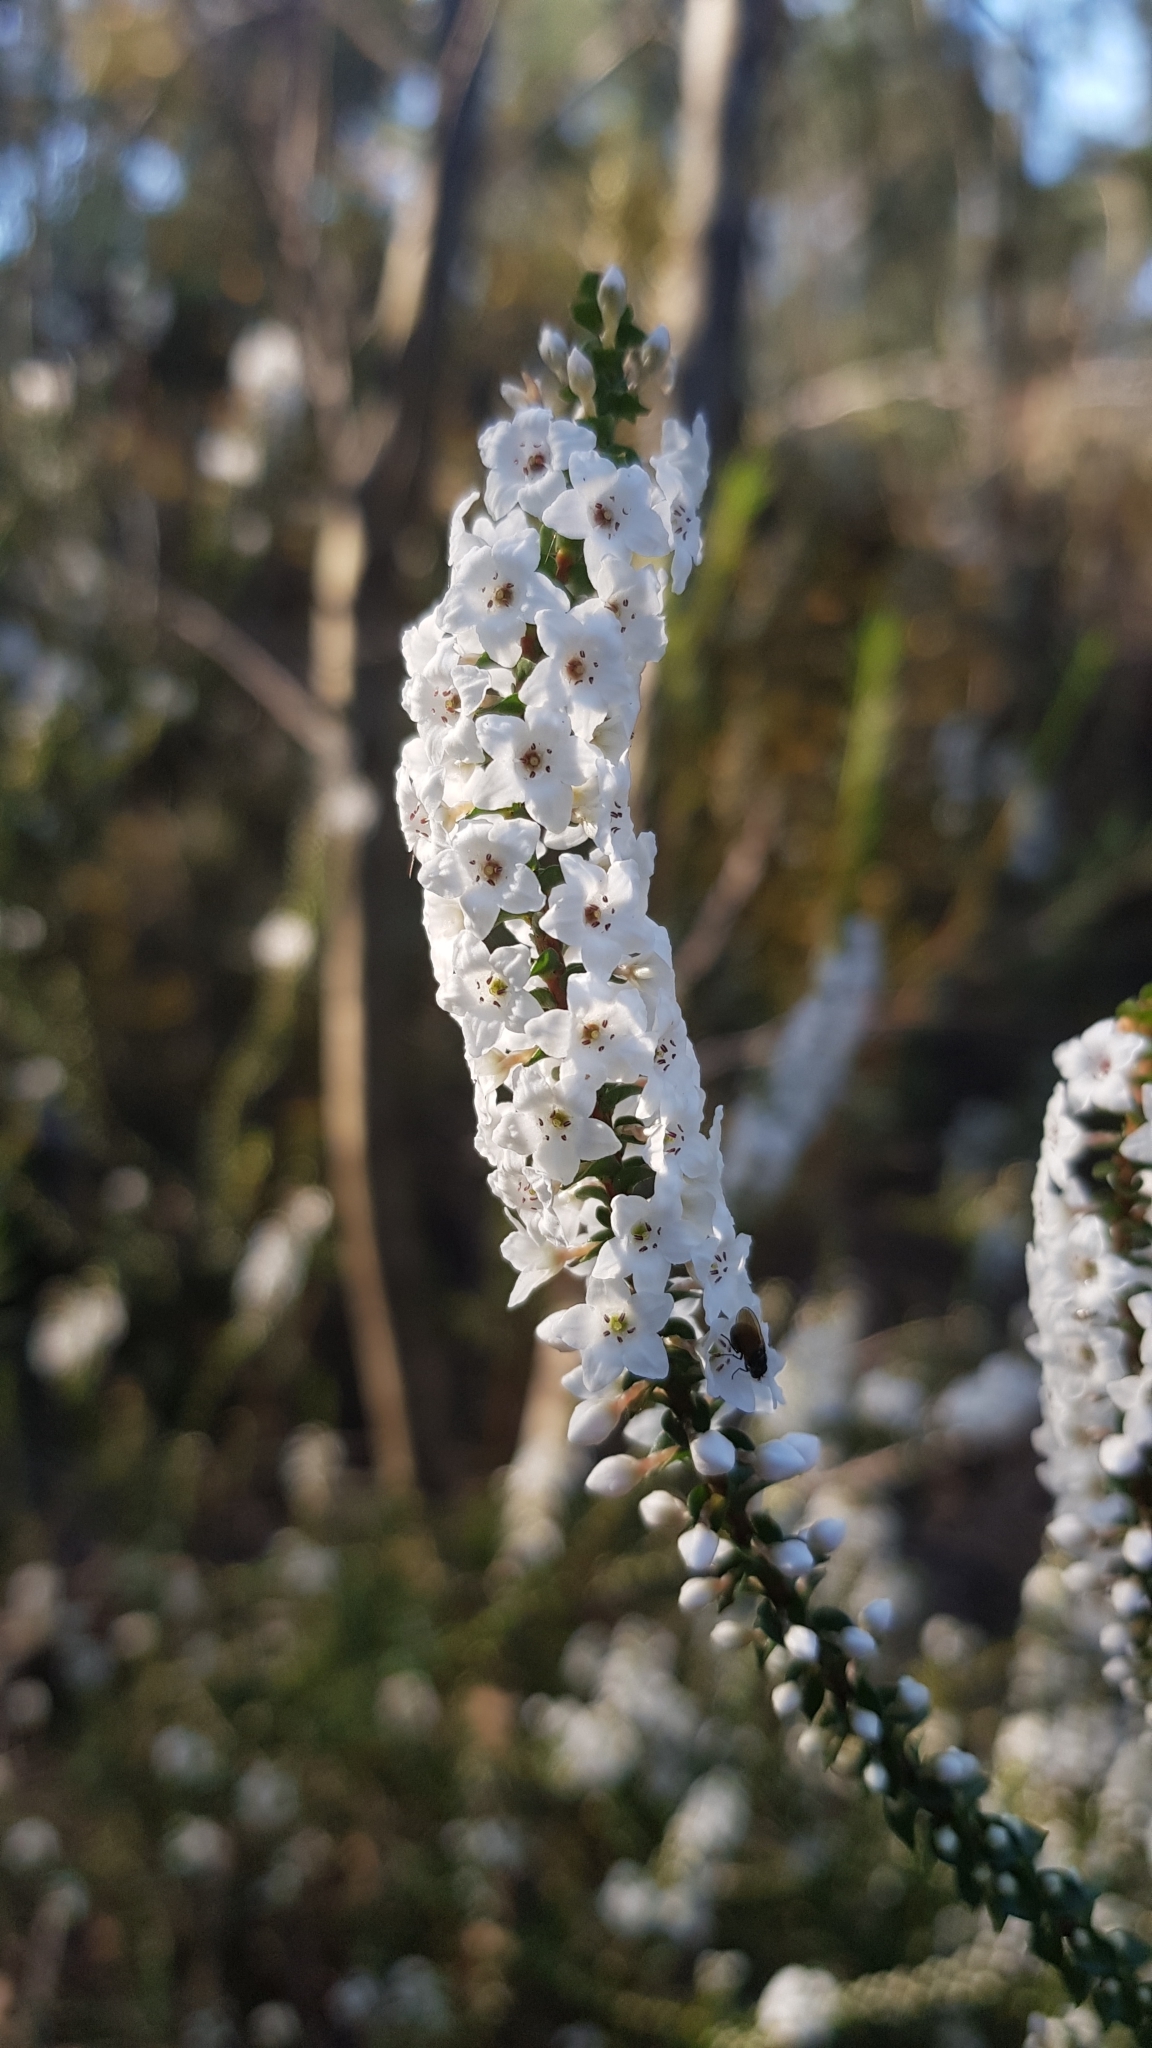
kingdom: Plantae
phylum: Tracheophyta
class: Magnoliopsida
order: Ericales
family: Ericaceae
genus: Epacris
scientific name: Epacris microphylla
